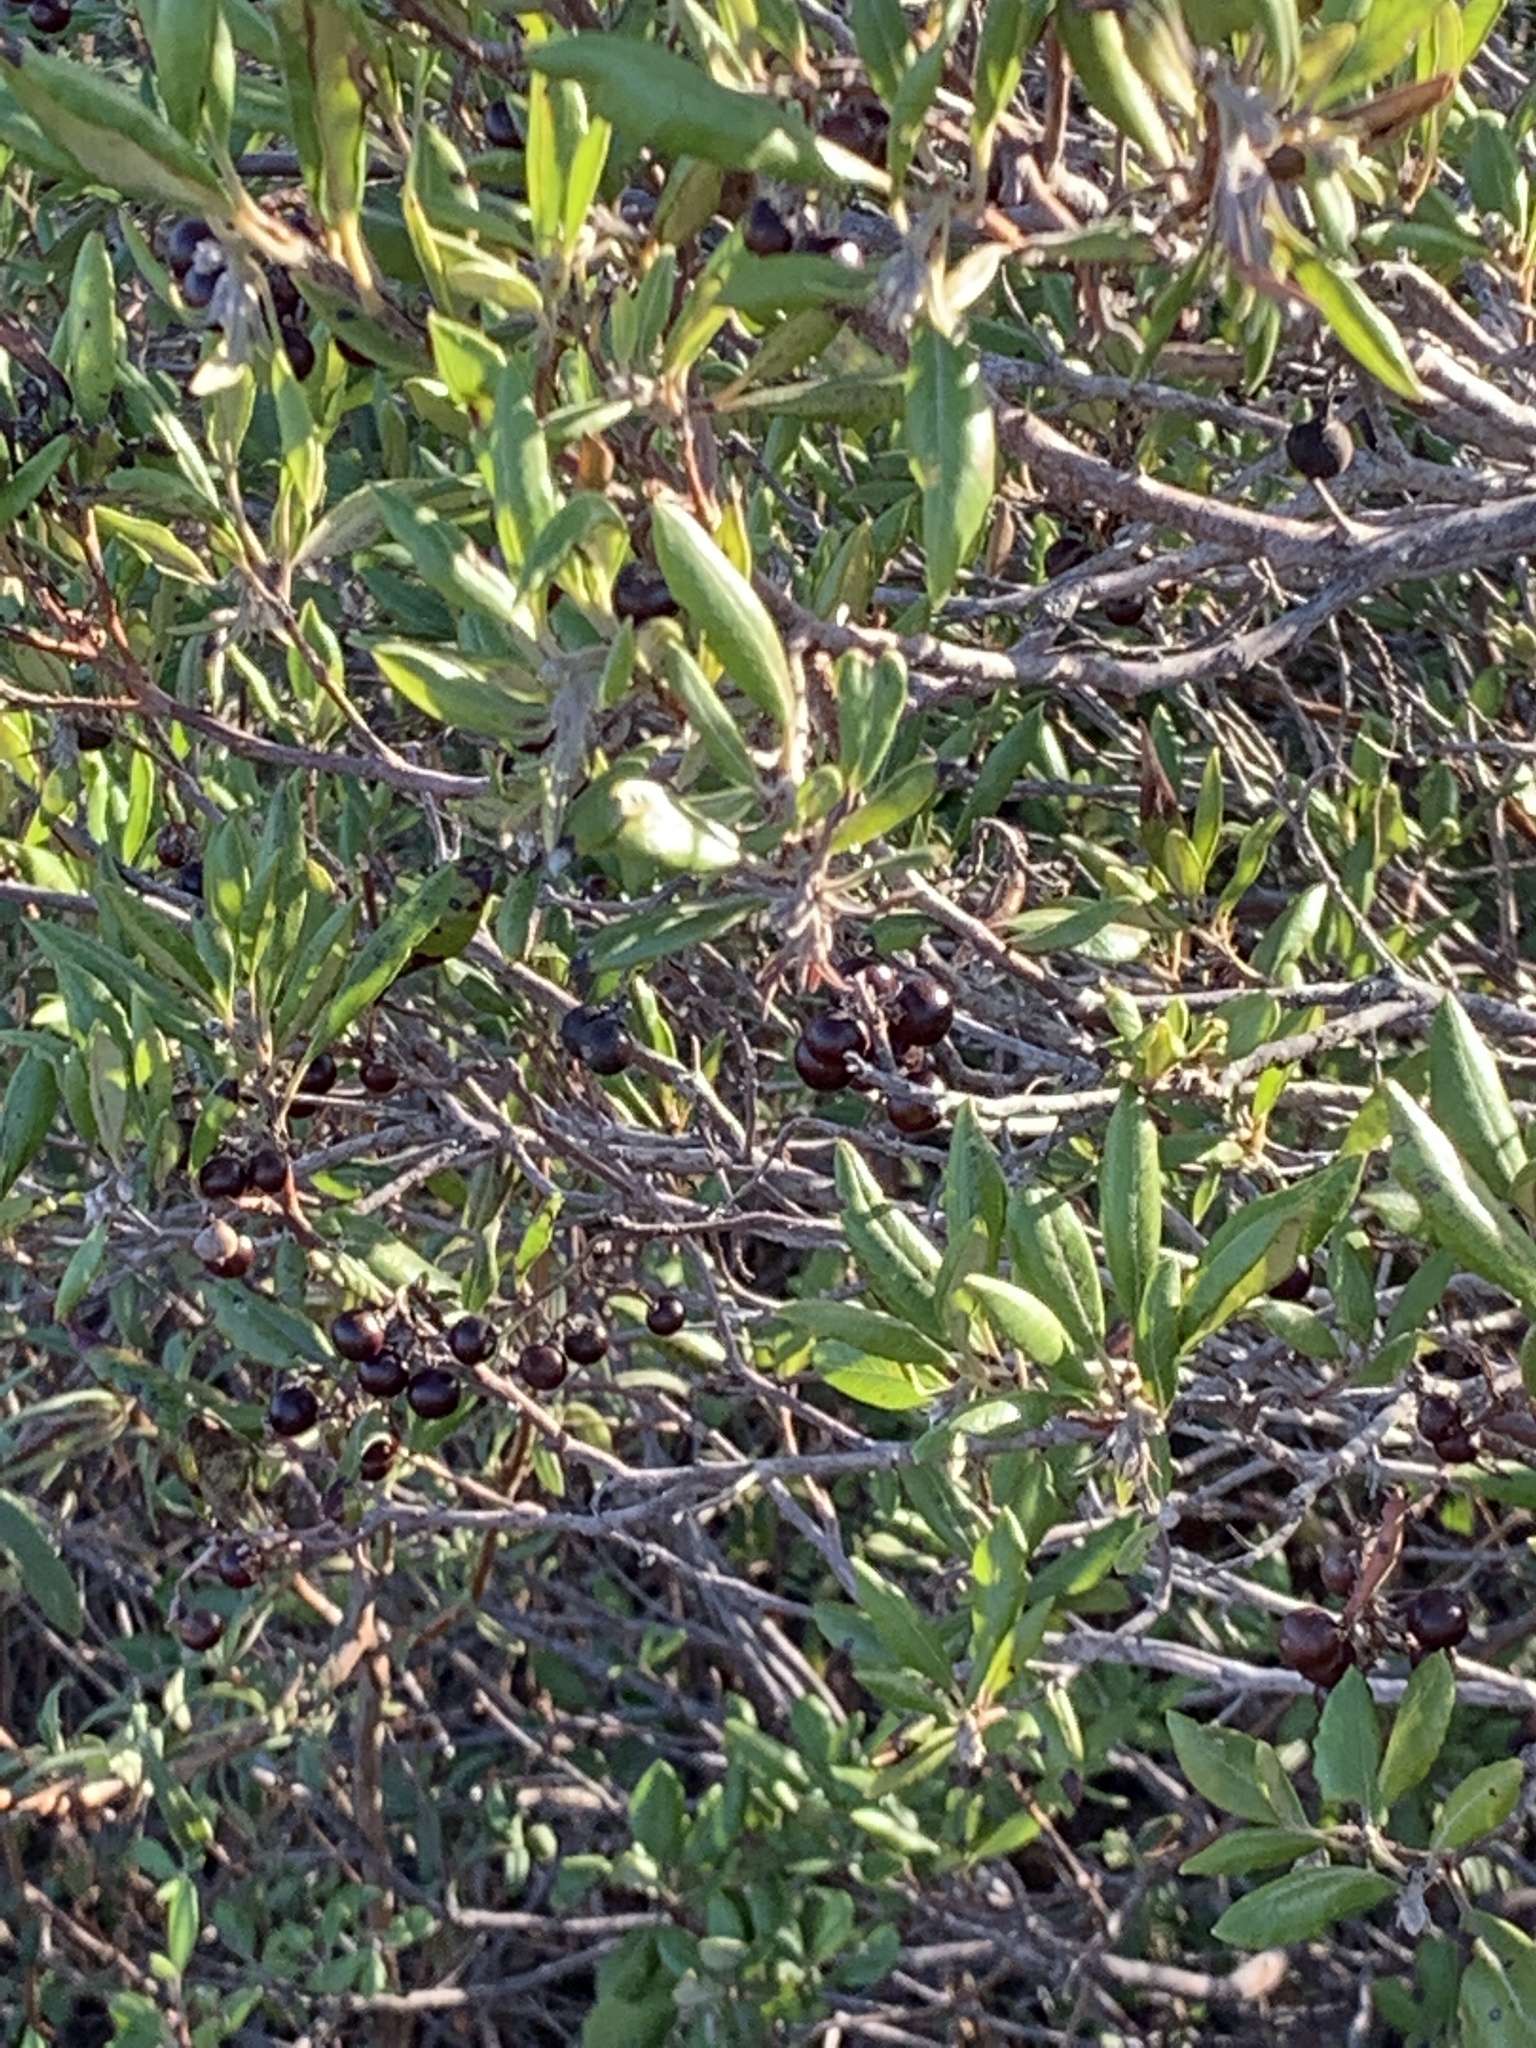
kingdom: Plantae
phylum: Tracheophyta
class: Magnoliopsida
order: Ericales
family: Ericaceae
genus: Arctostaphylos
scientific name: Arctostaphylos bicolor
